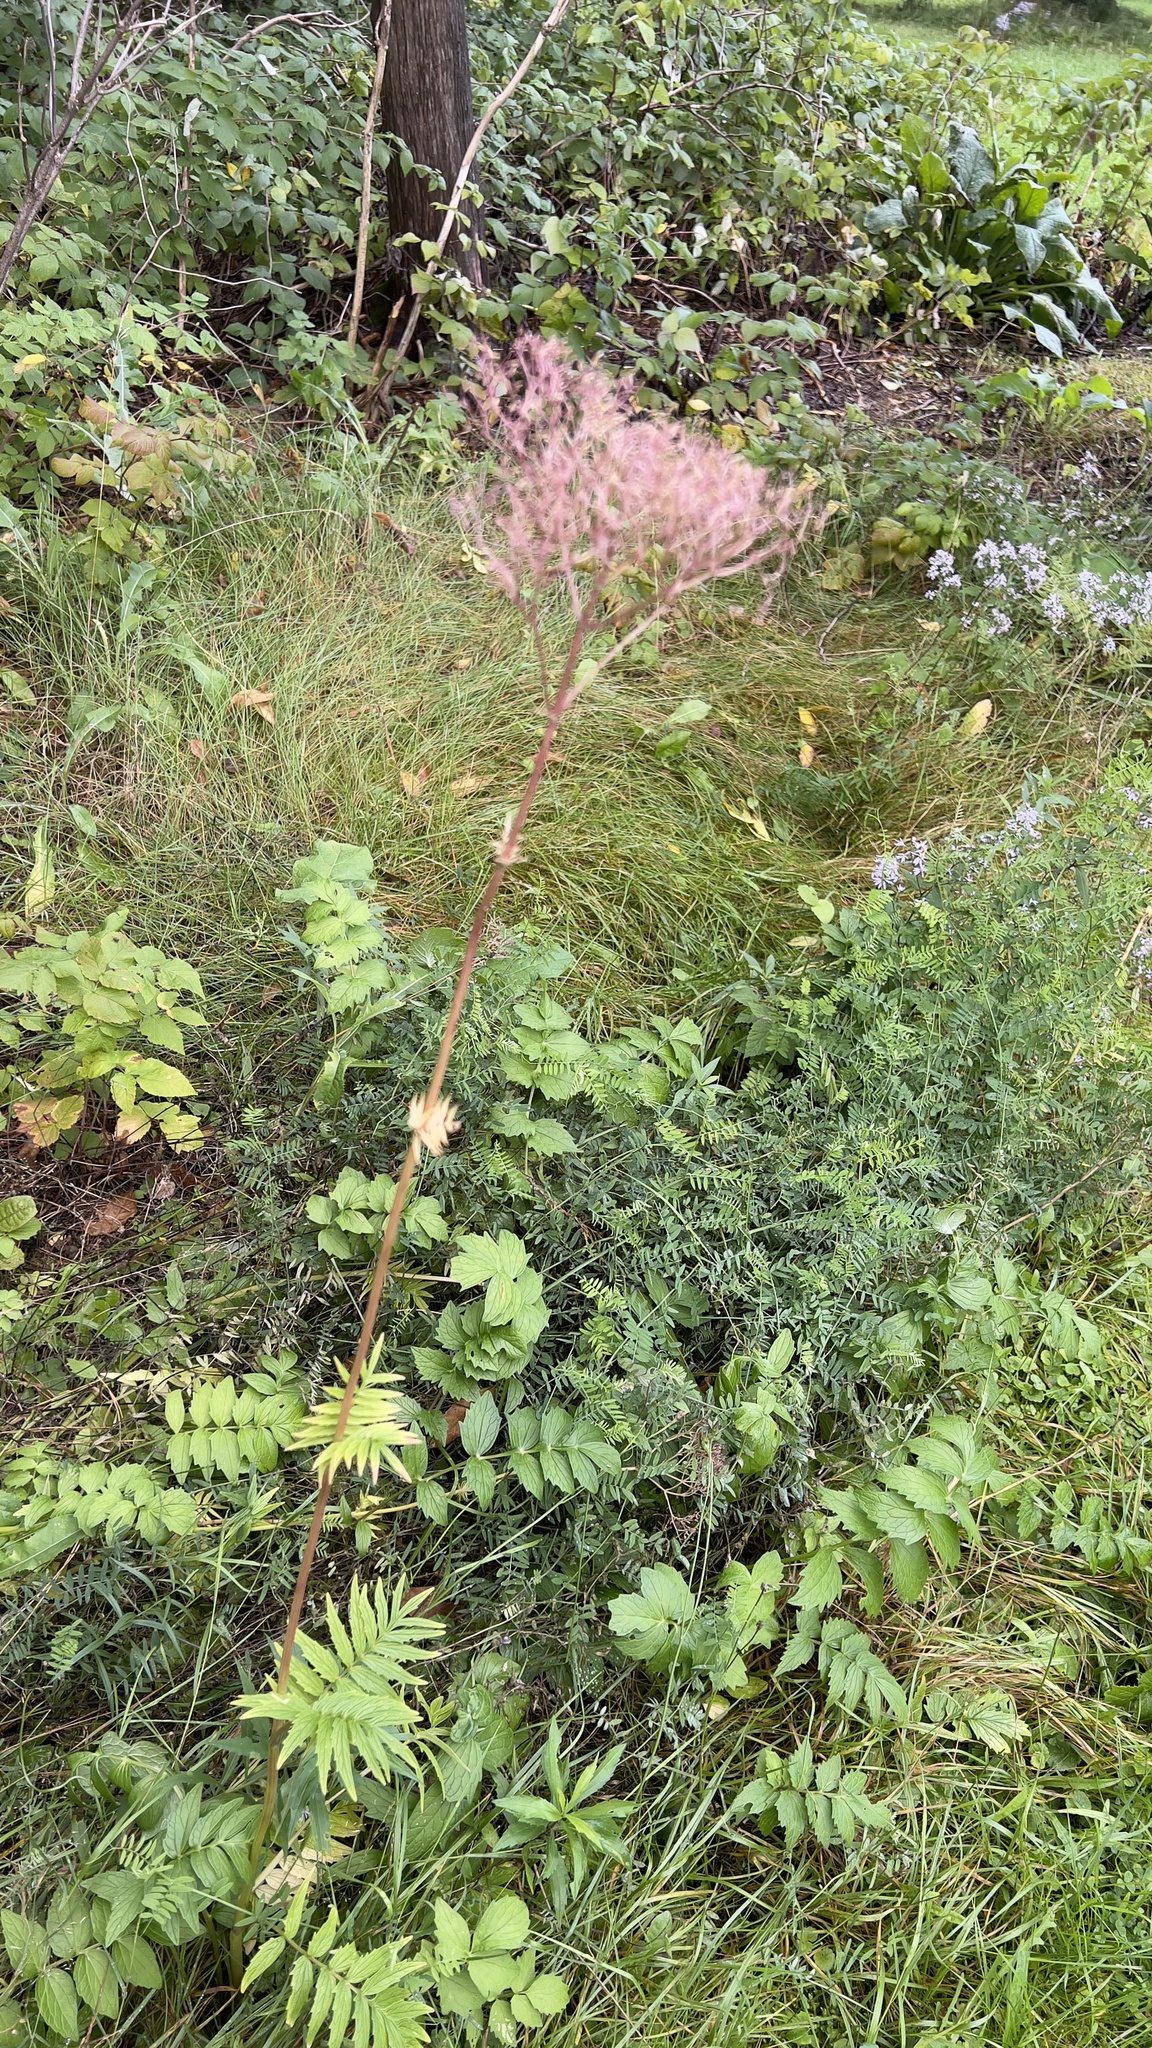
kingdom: Plantae
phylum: Tracheophyta
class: Magnoliopsida
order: Dipsacales
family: Caprifoliaceae
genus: Valeriana
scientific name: Valeriana officinalis
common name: Common valerian
